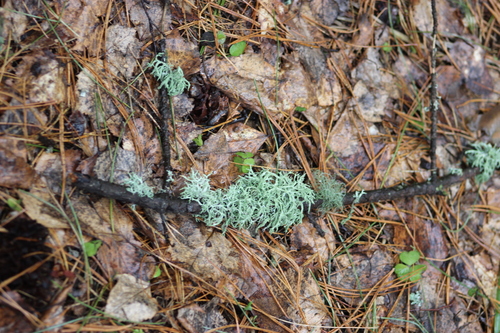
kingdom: Fungi
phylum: Ascomycota
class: Lecanoromycetes
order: Lecanorales
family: Parmeliaceae
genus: Evernia
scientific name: Evernia mesomorpha
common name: Boreal oak moss lichen
